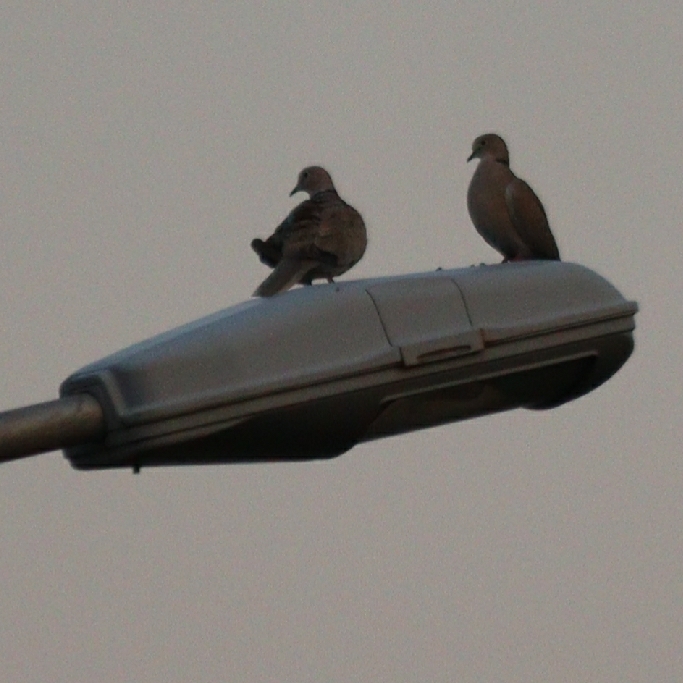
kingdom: Animalia
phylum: Chordata
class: Aves
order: Columbiformes
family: Columbidae
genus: Streptopelia
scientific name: Streptopelia decaocto
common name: Eurasian collared dove
